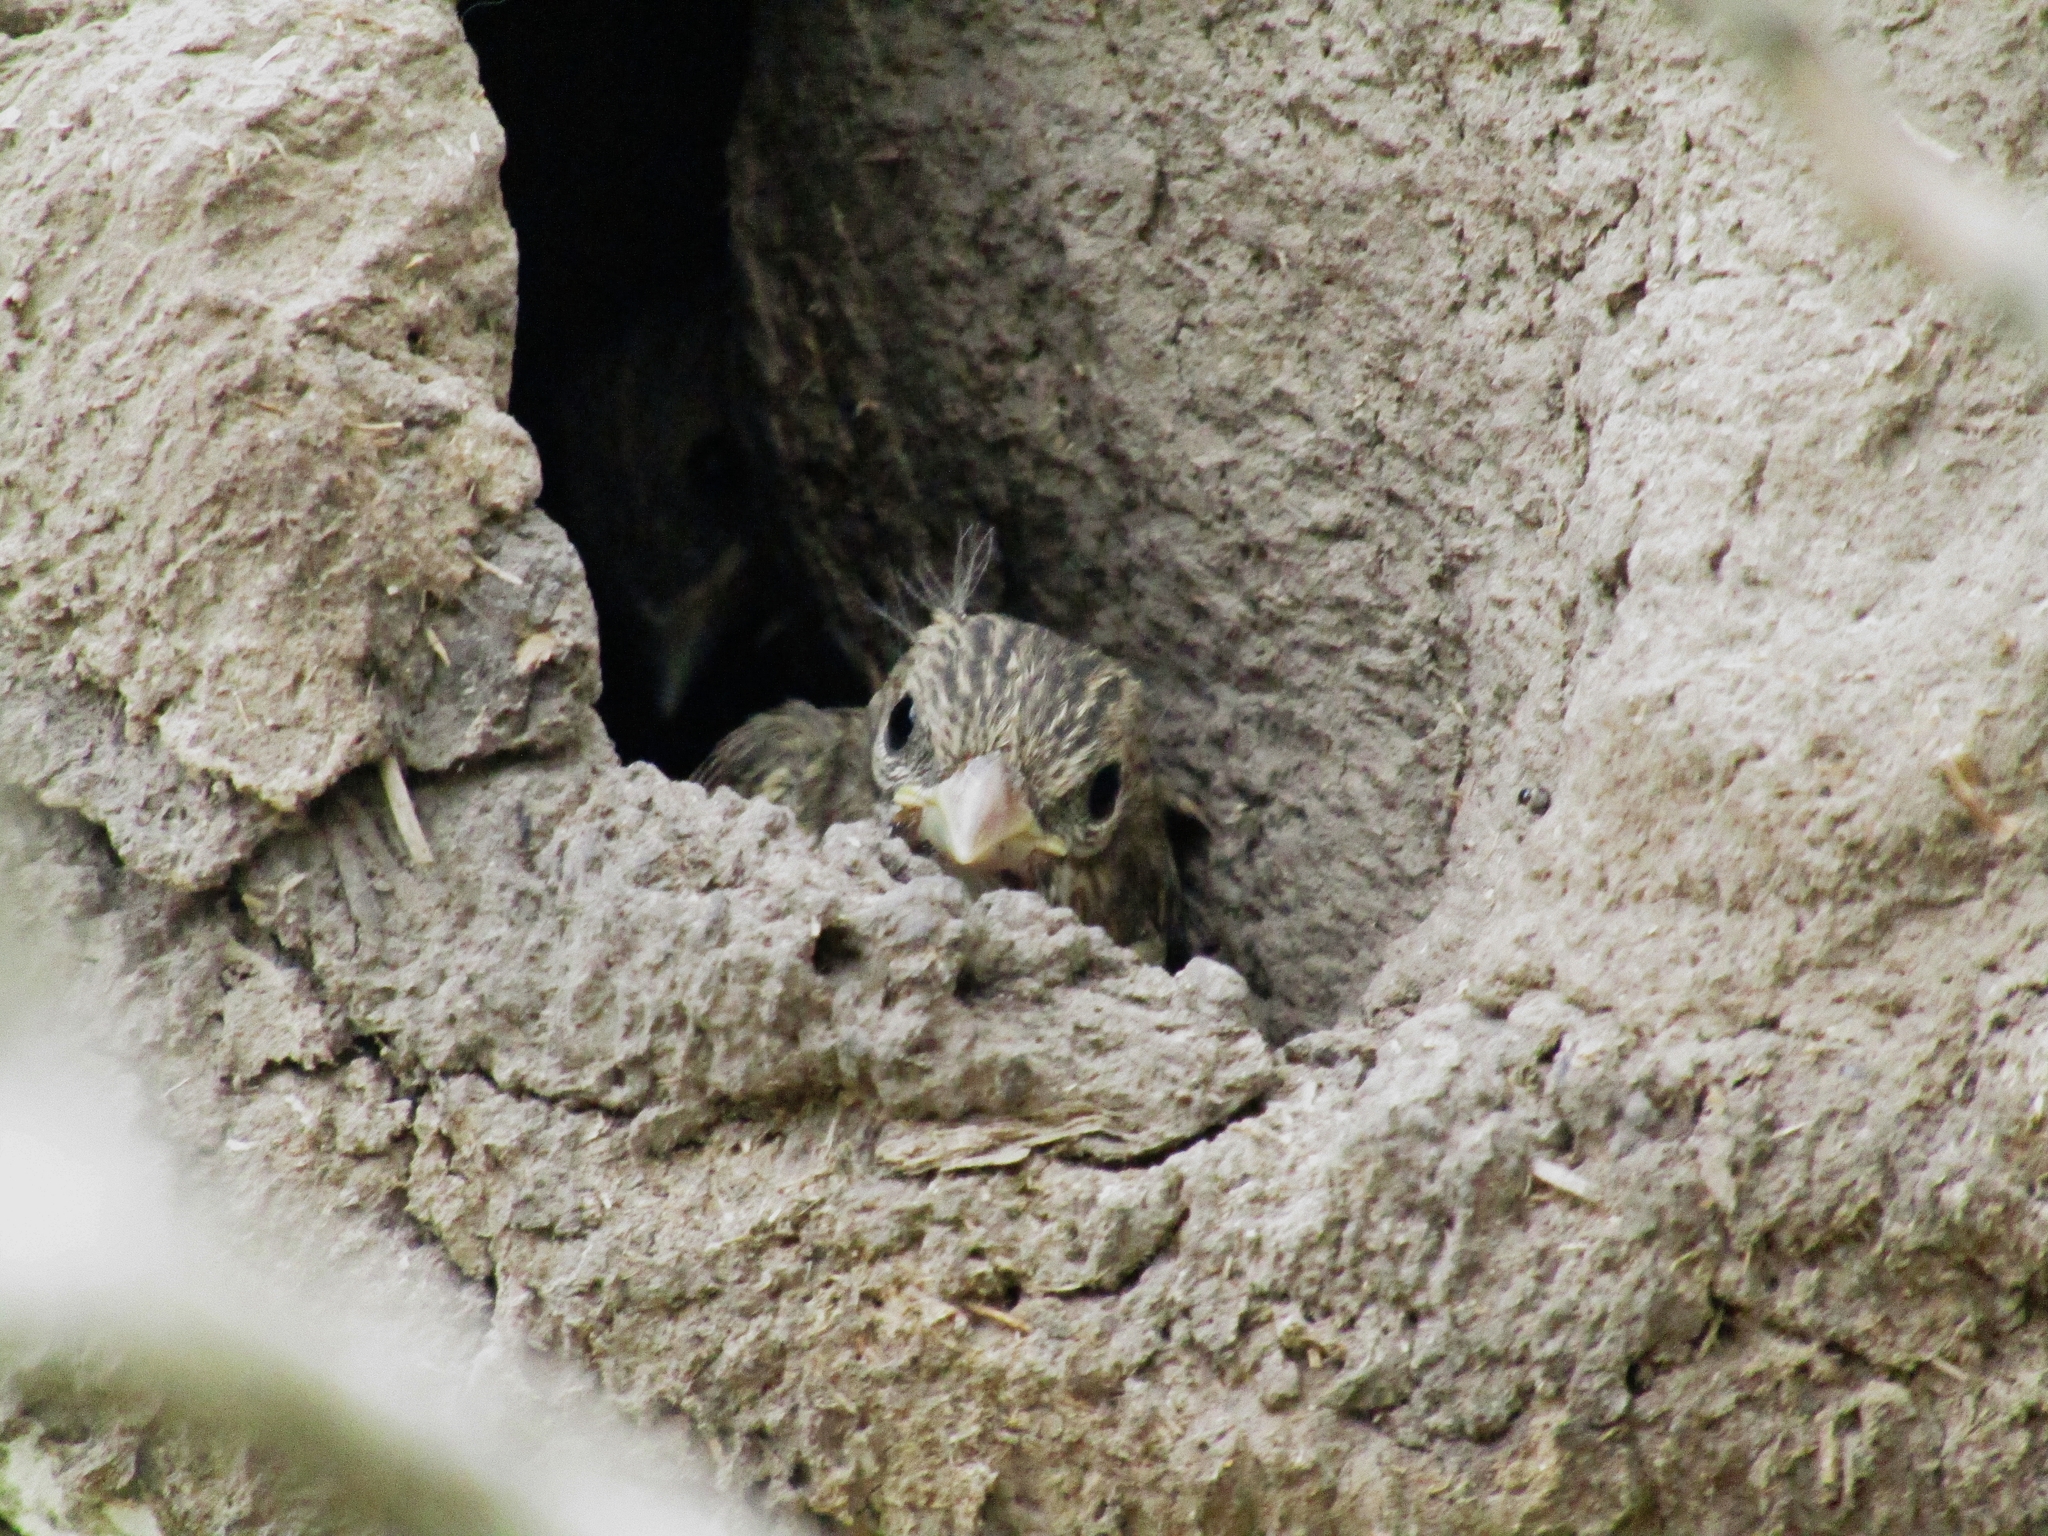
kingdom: Animalia
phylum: Chordata
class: Aves
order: Passeriformes
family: Thraupidae
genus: Sicalis
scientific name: Sicalis flaveola
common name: Saffron finch
